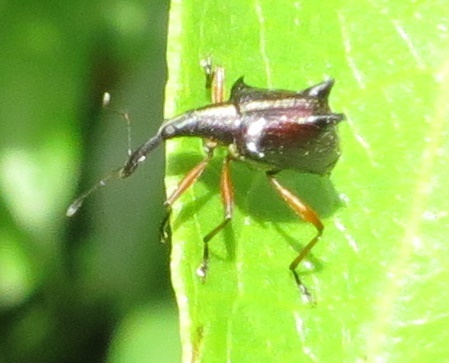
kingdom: Animalia
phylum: Arthropoda
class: Insecta
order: Coleoptera
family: Curculionidae
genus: Ancistropterus
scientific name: Ancistropterus quadrispinosus
